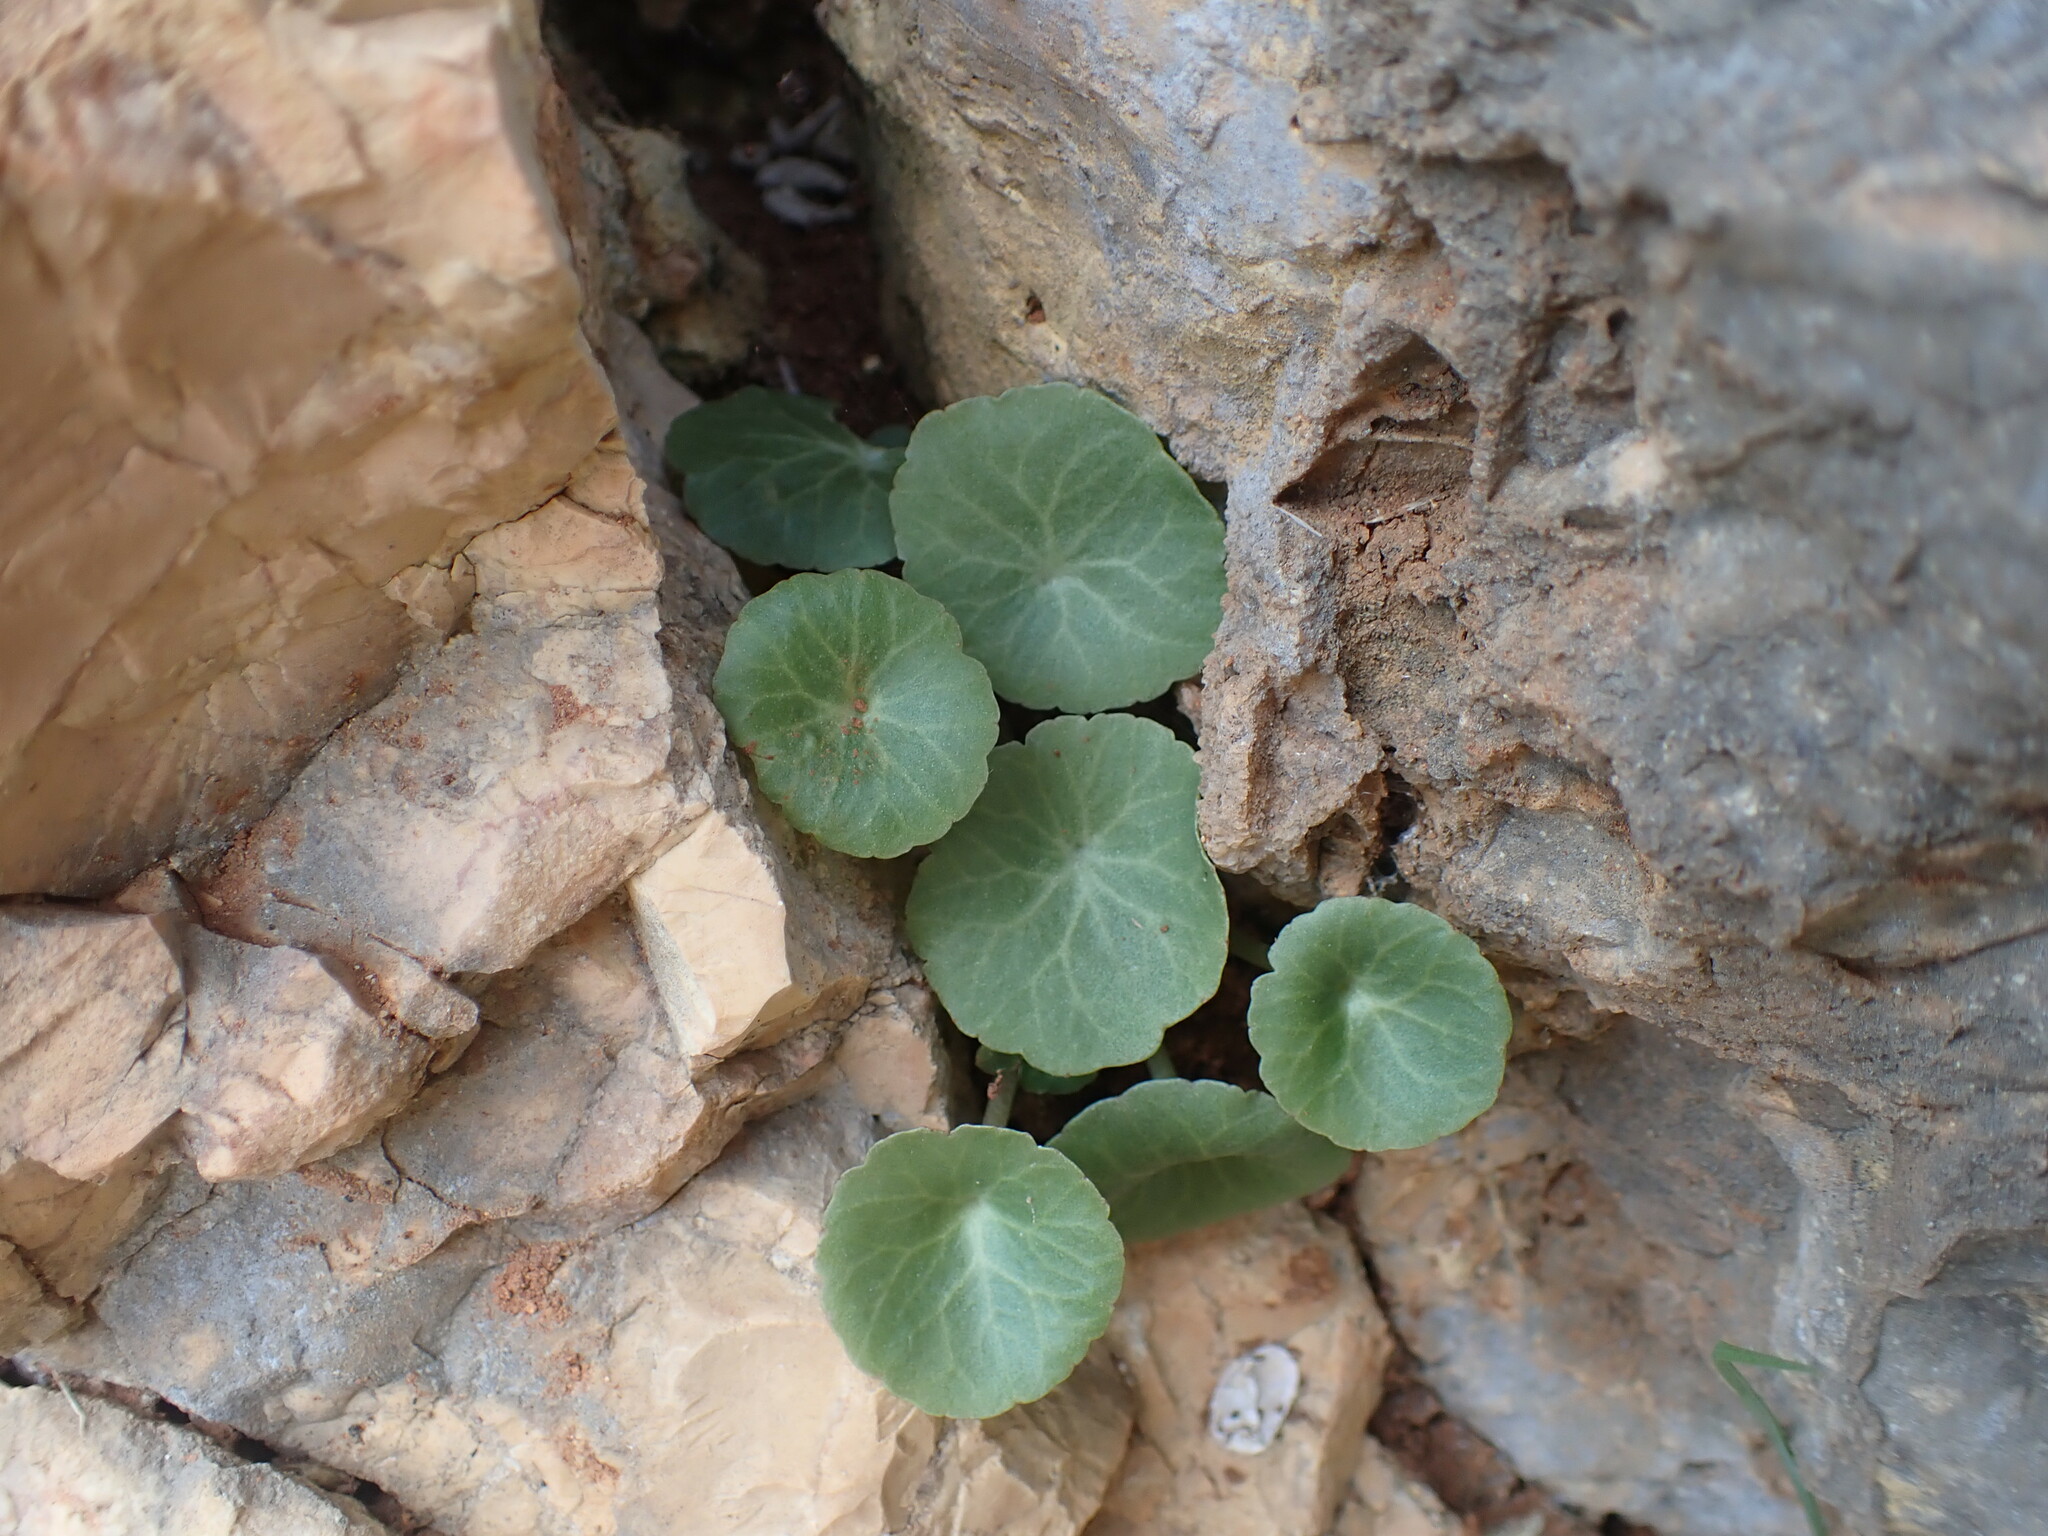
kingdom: Plantae
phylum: Tracheophyta
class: Magnoliopsida
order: Saxifragales
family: Crassulaceae
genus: Umbilicus
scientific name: Umbilicus rupestris
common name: Navelwort
